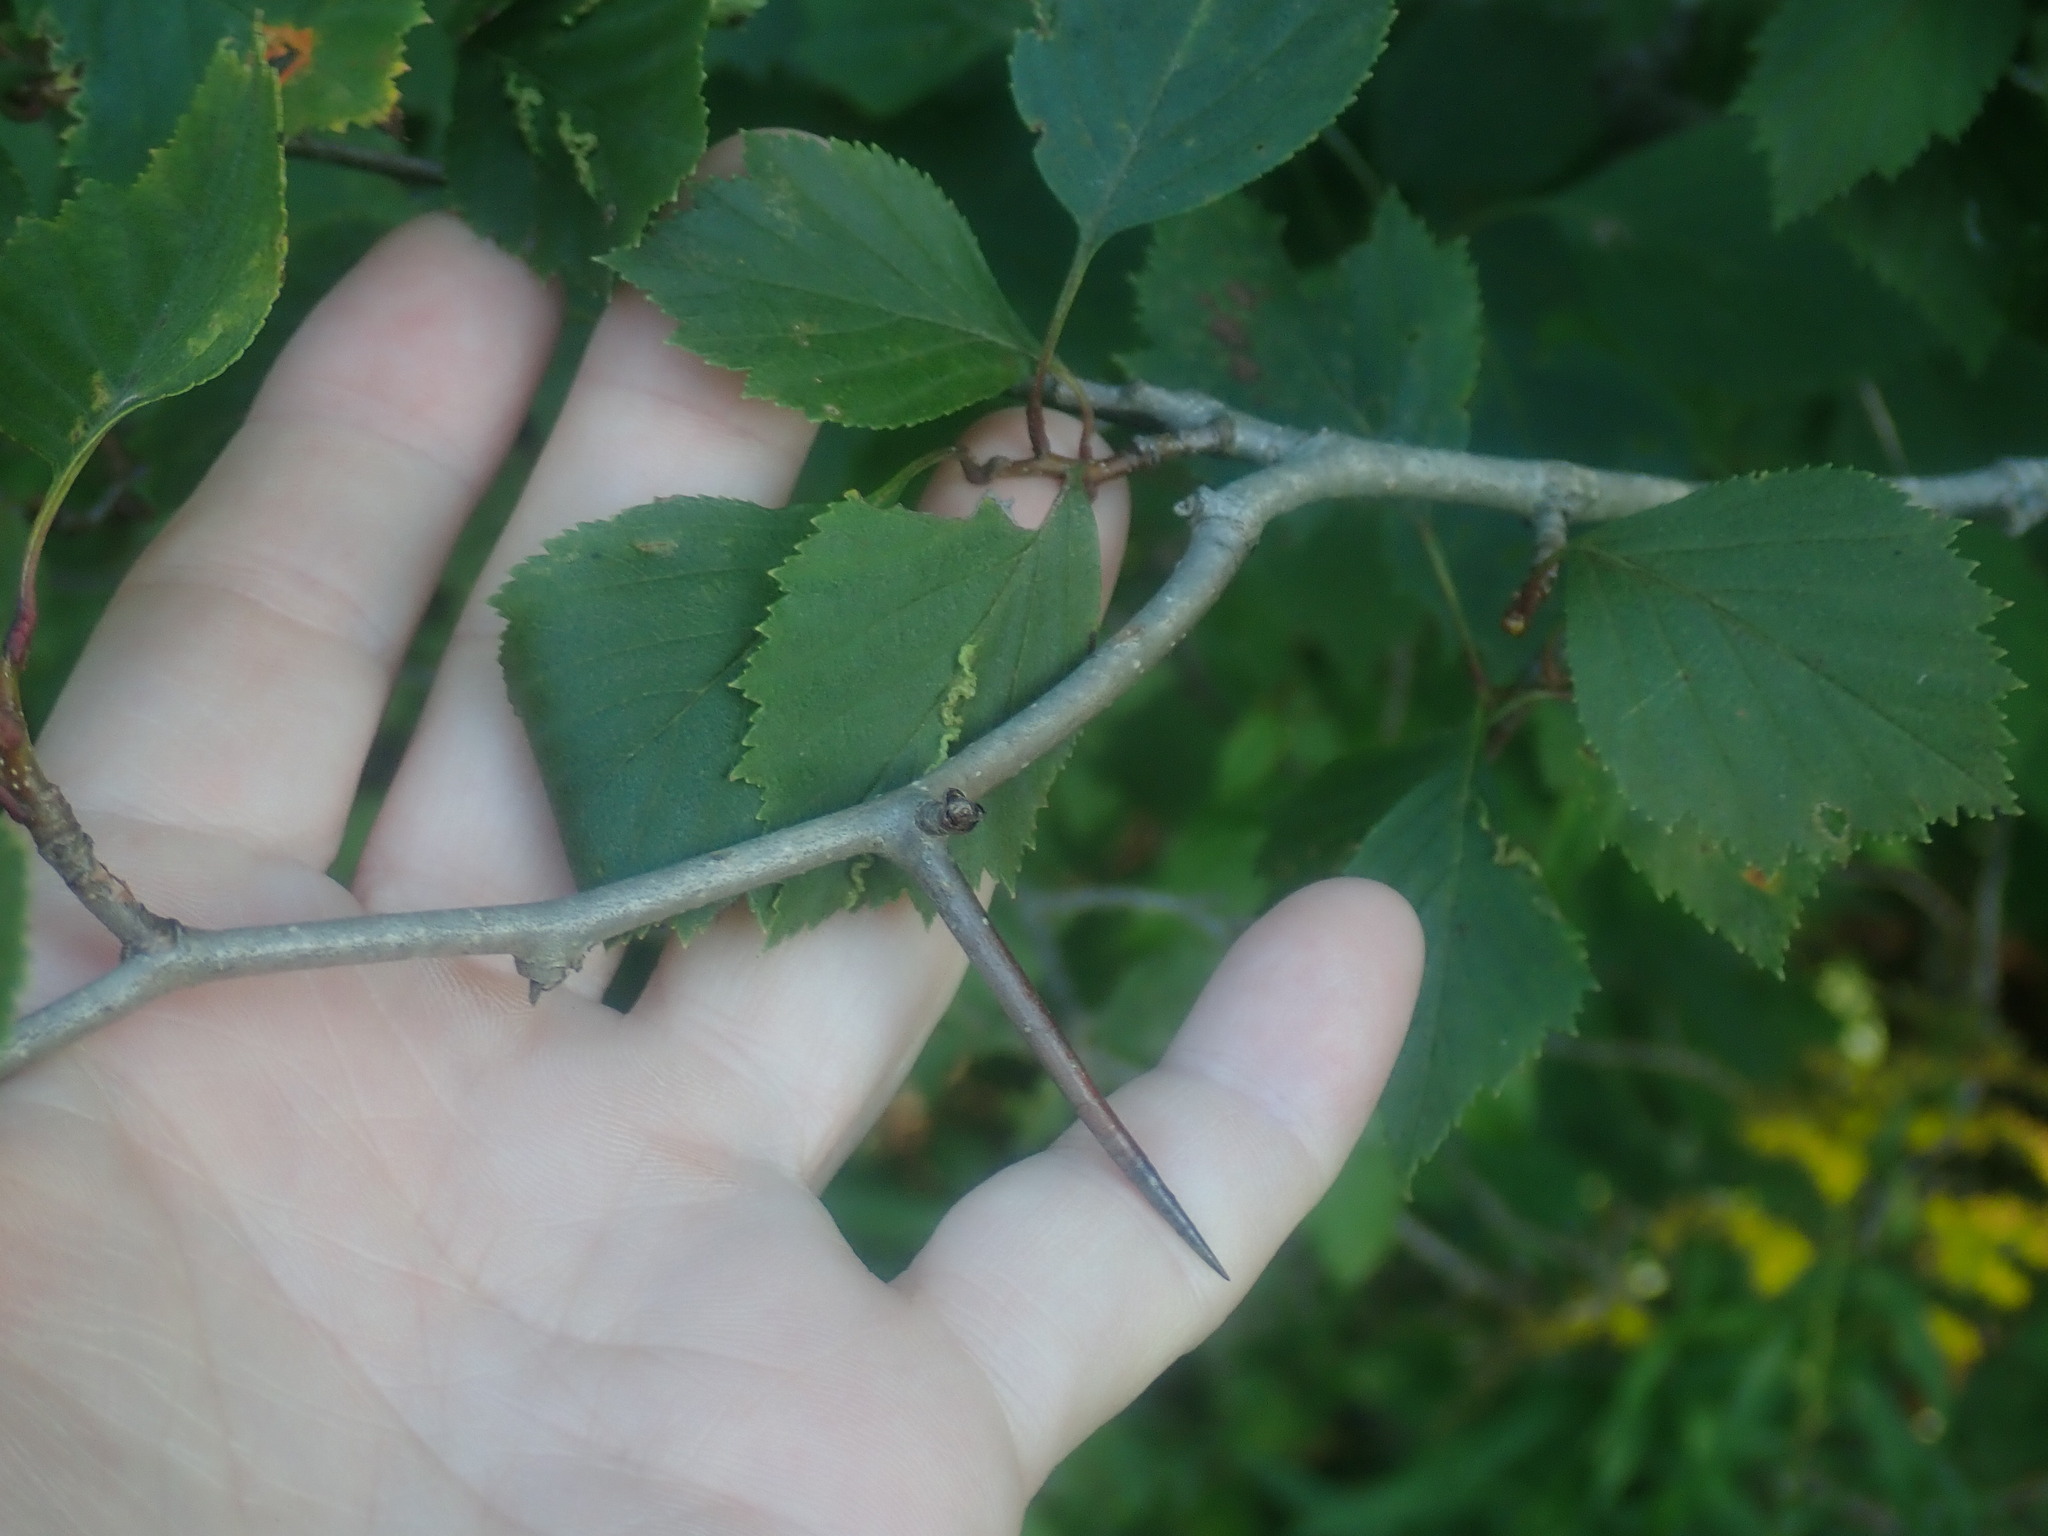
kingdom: Plantae
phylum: Tracheophyta
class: Magnoliopsida
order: Rosales
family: Rosaceae
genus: Crataegus
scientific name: Crataegus
